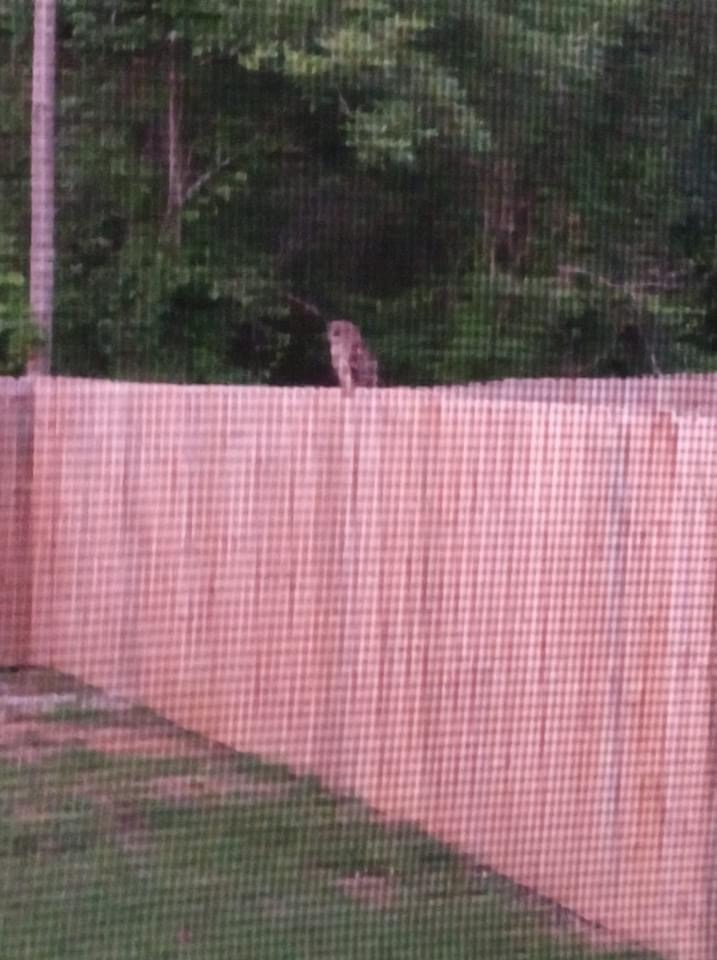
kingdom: Animalia
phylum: Chordata
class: Aves
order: Strigiformes
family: Strigidae
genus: Strix
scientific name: Strix varia
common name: Barred owl
